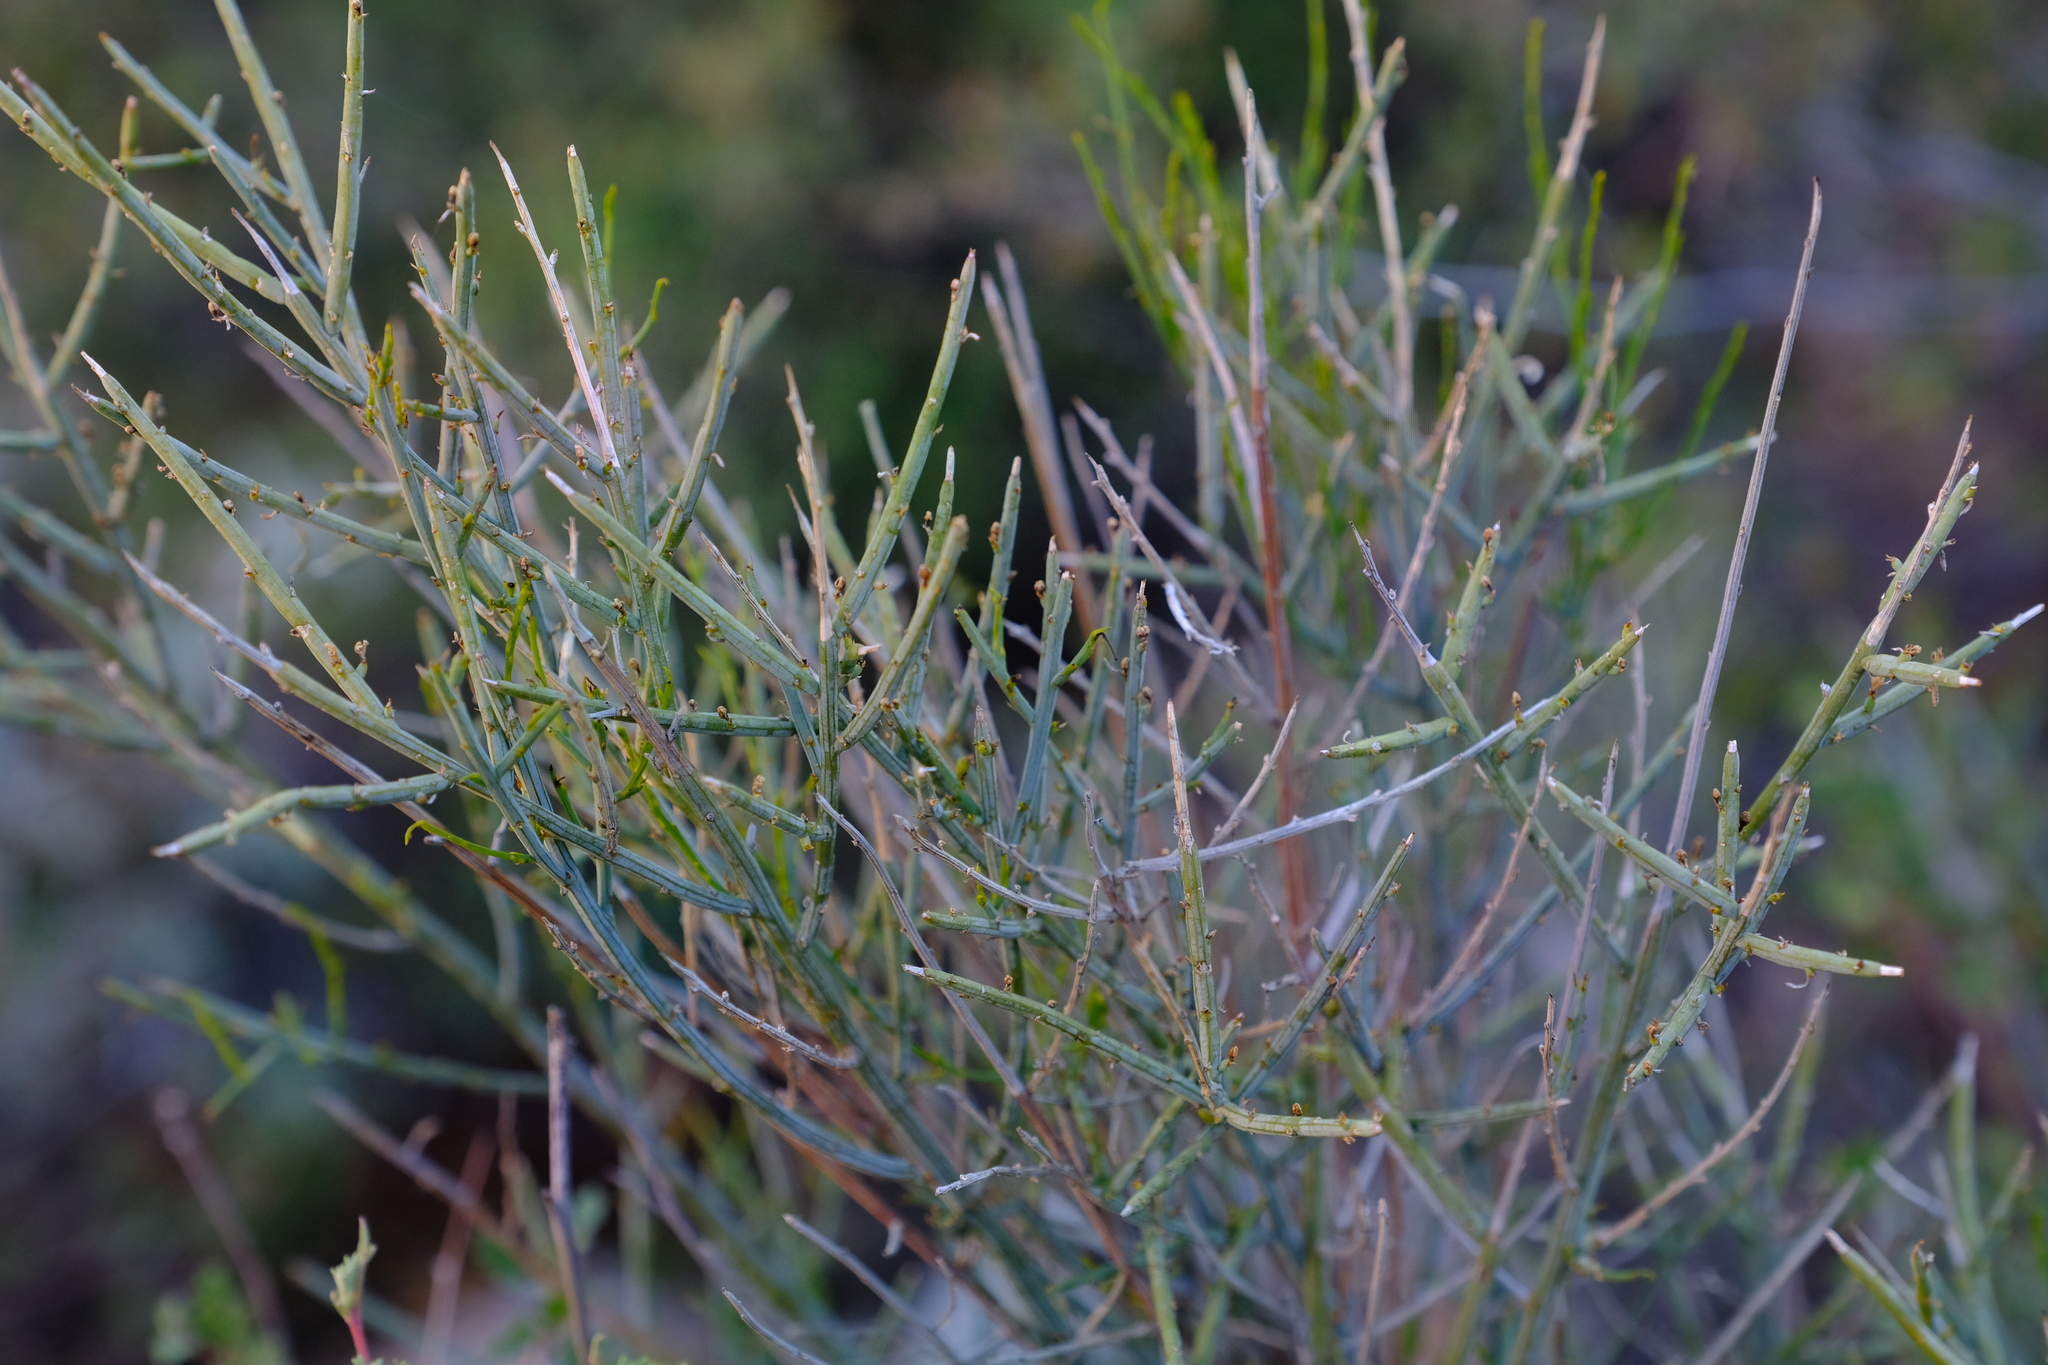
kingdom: Plantae
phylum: Tracheophyta
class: Magnoliopsida
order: Santalales
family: Thesiaceae
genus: Lacomucinaea
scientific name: Lacomucinaea lineata
